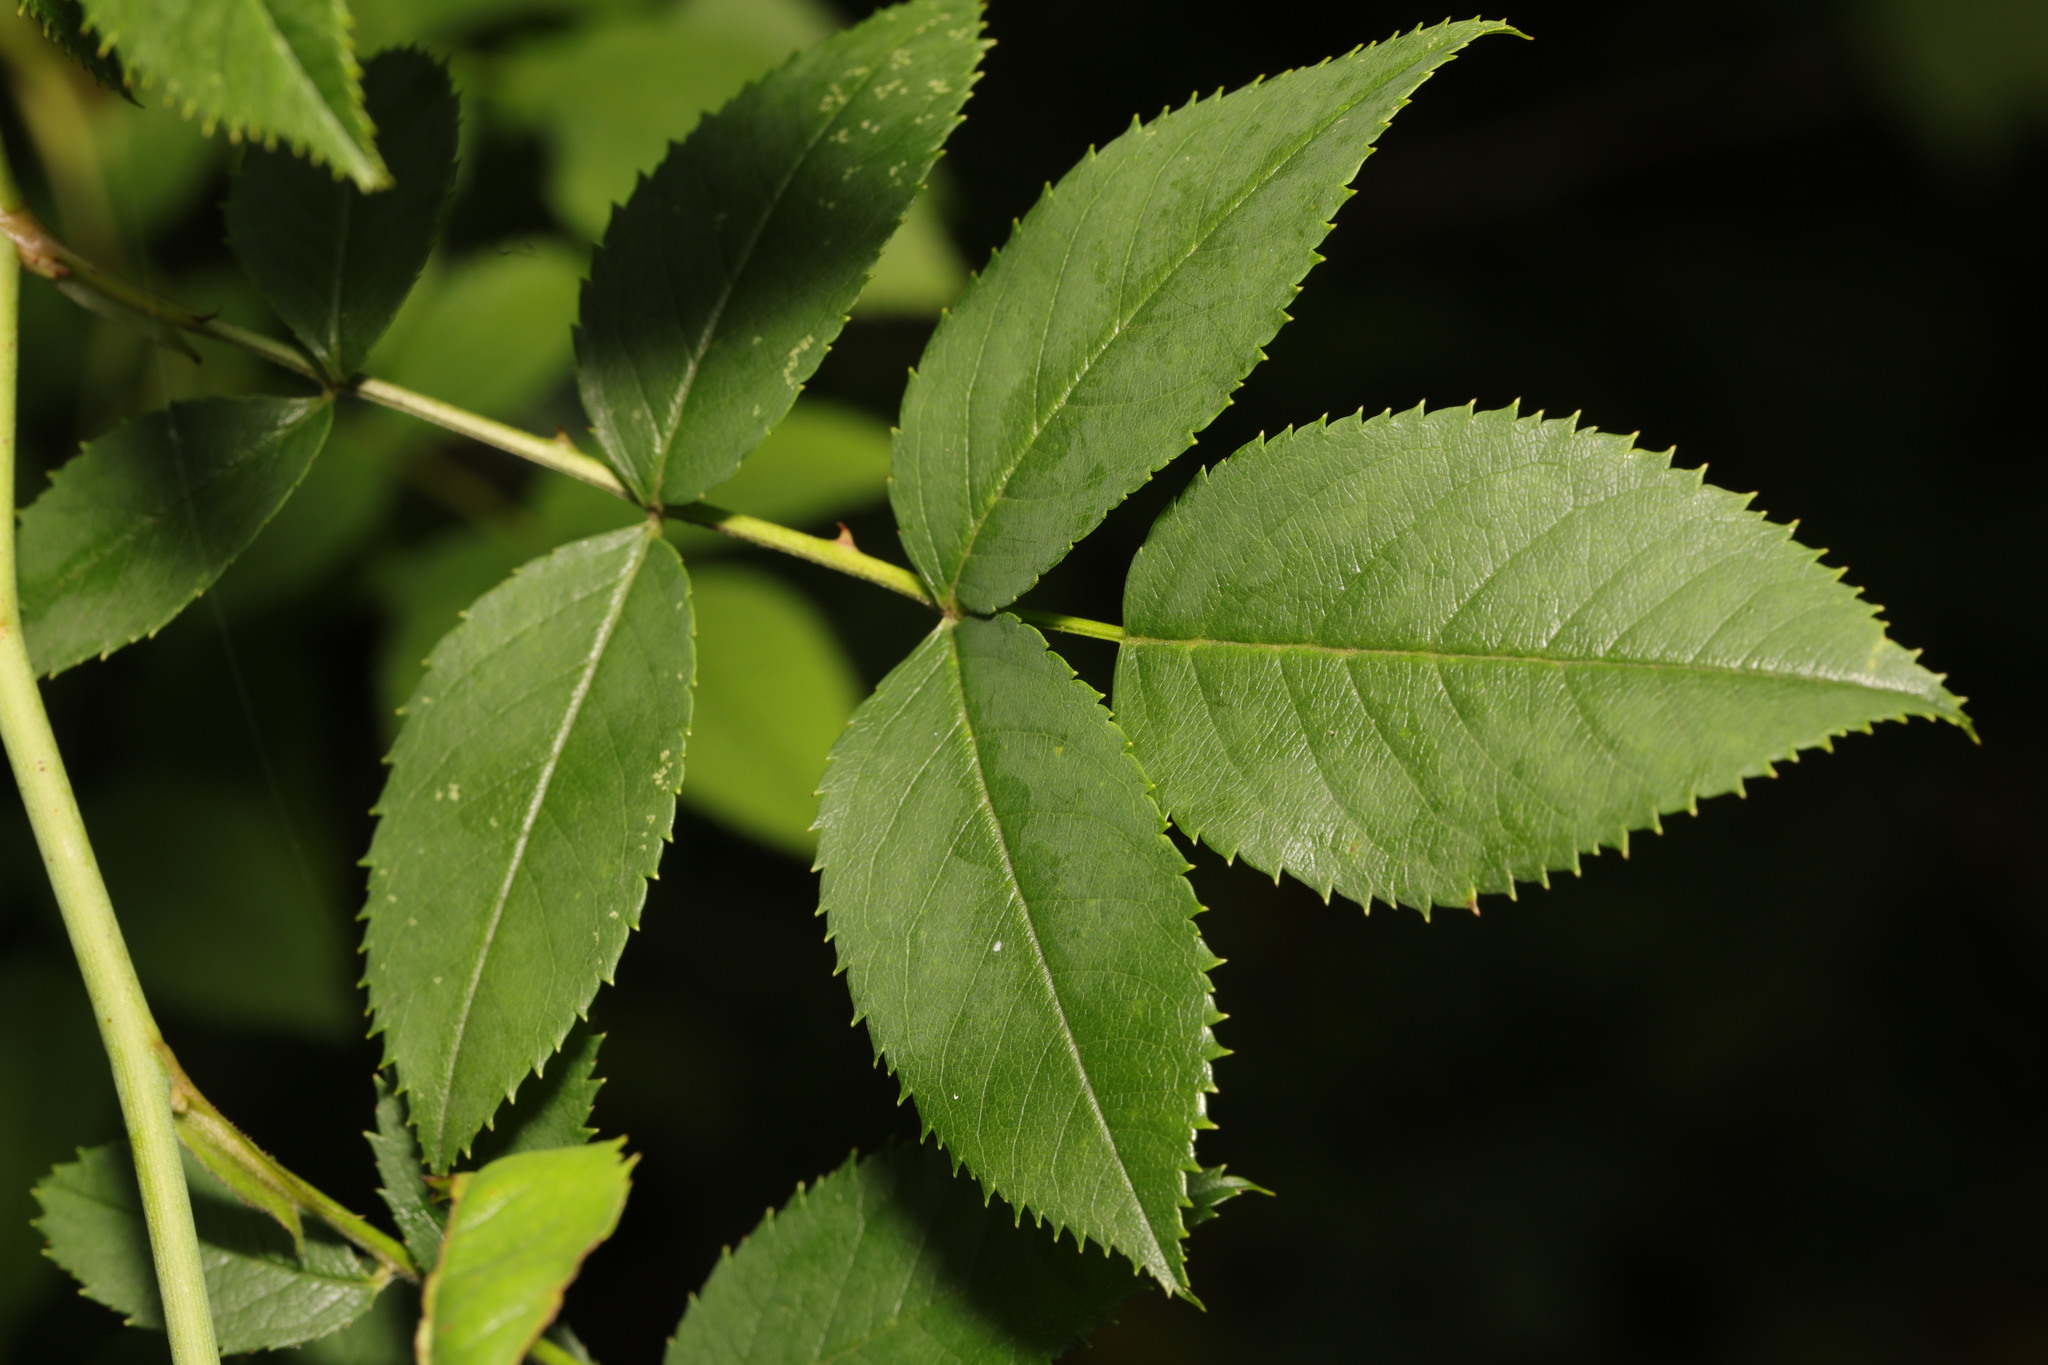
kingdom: Plantae
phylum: Tracheophyta
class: Magnoliopsida
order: Rosales
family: Rosaceae
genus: Rosa
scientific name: Rosa canina
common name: Dog rose
